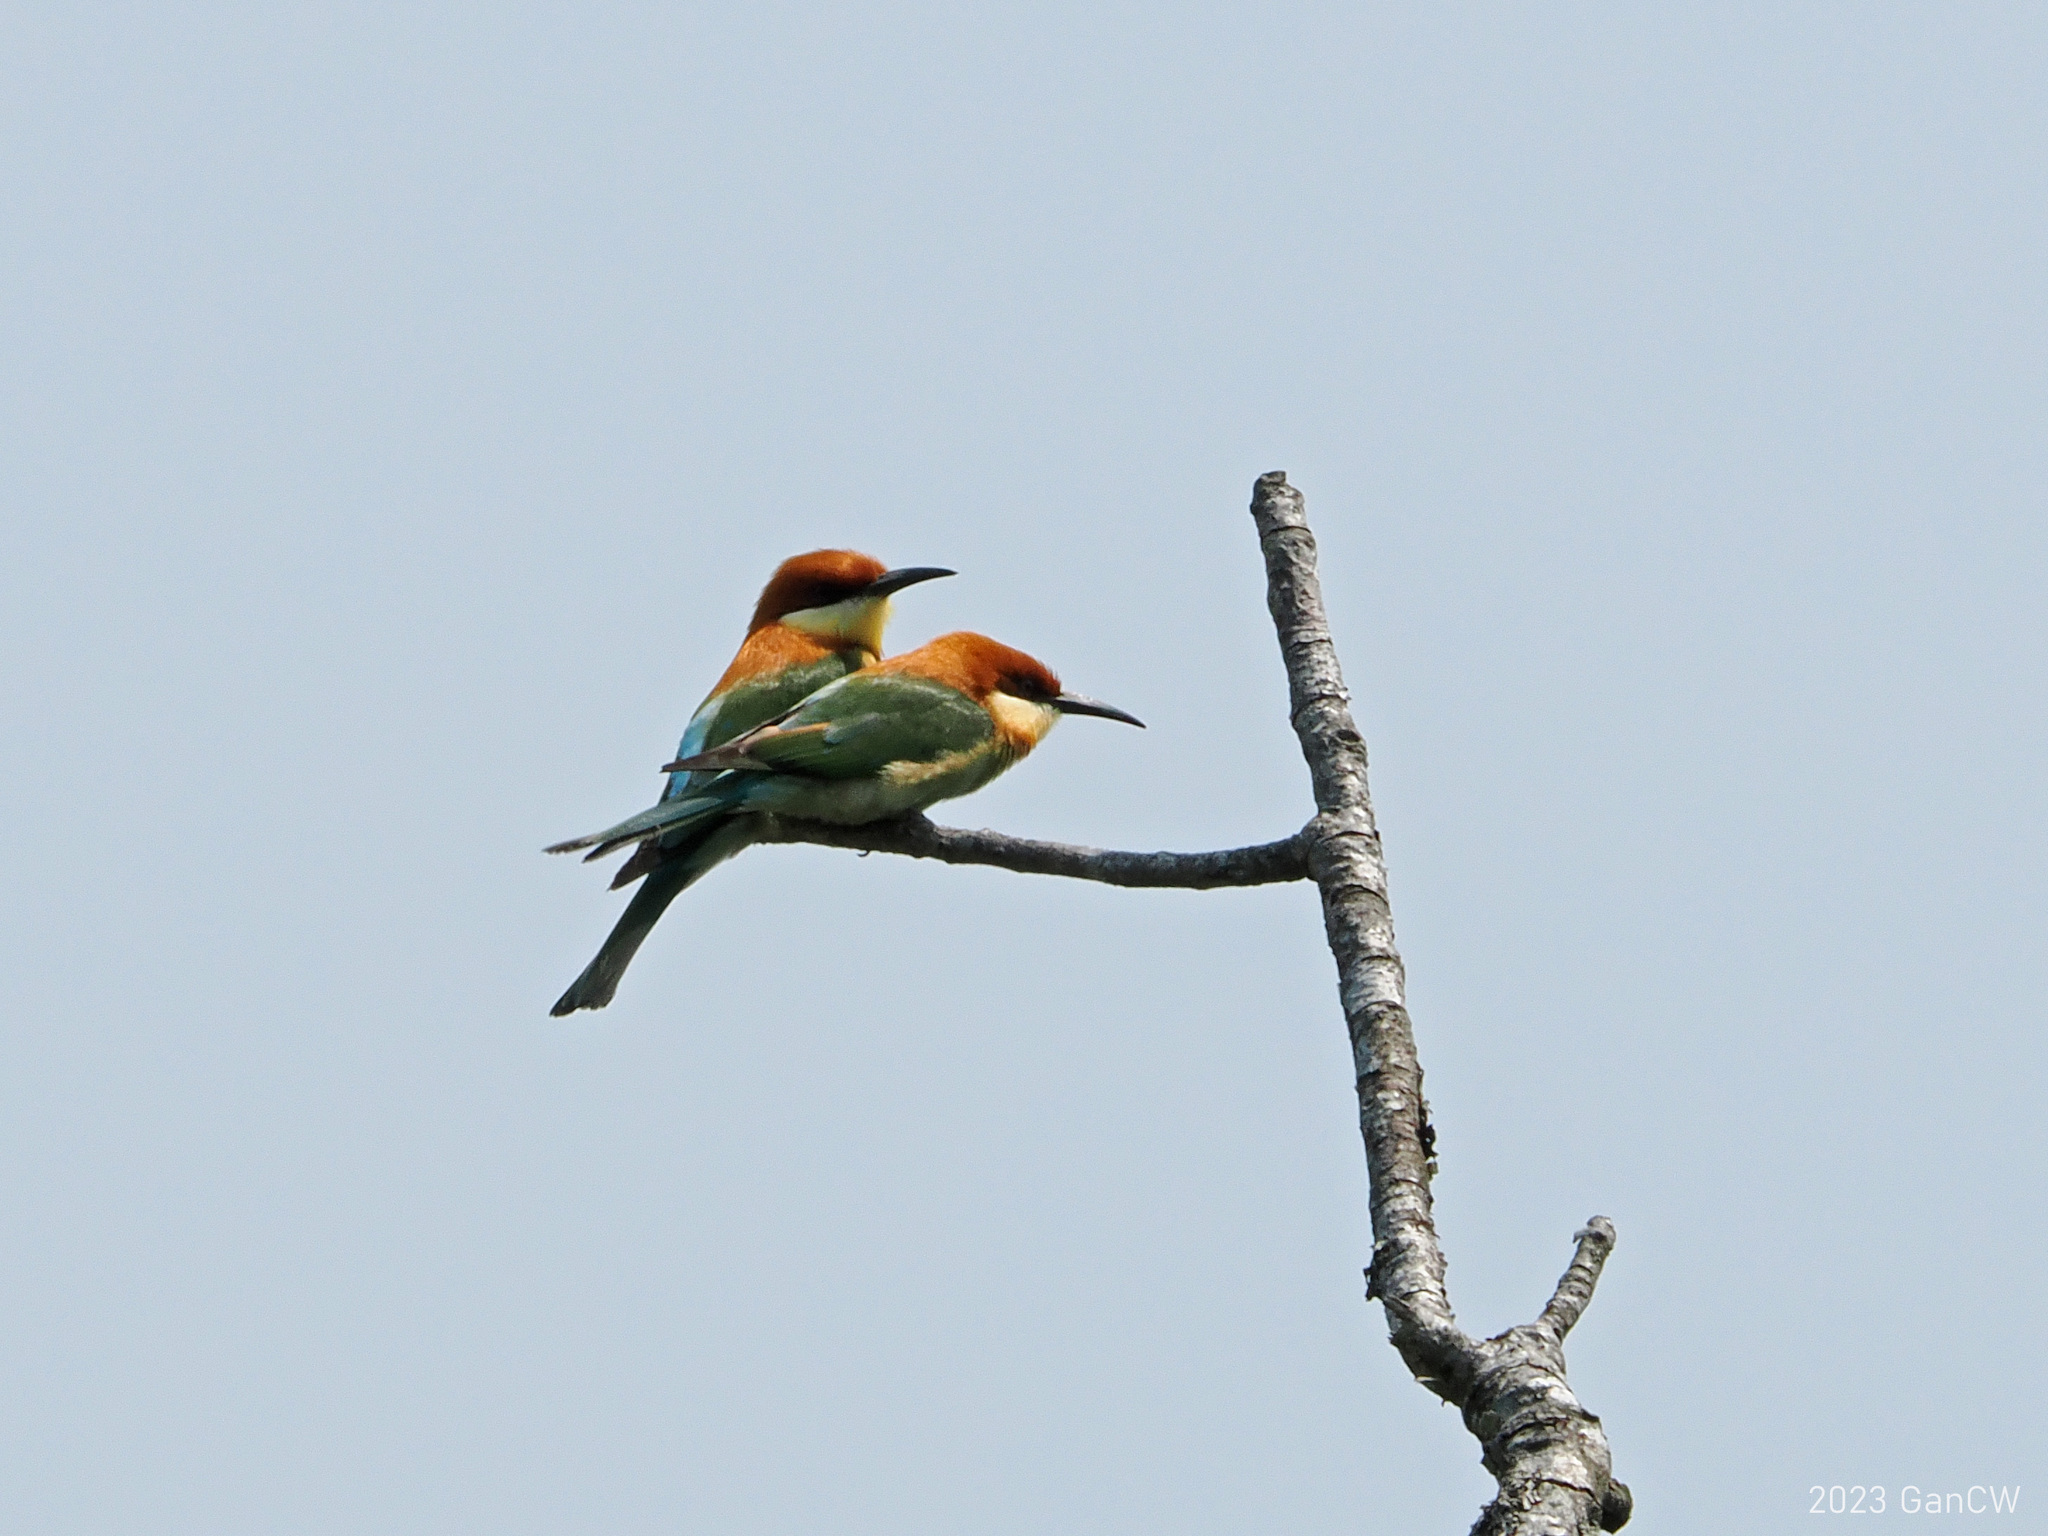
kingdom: Animalia
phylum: Chordata
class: Aves
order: Coraciiformes
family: Meropidae
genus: Merops
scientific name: Merops leschenaulti
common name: Chestnut-headed bee-eater
